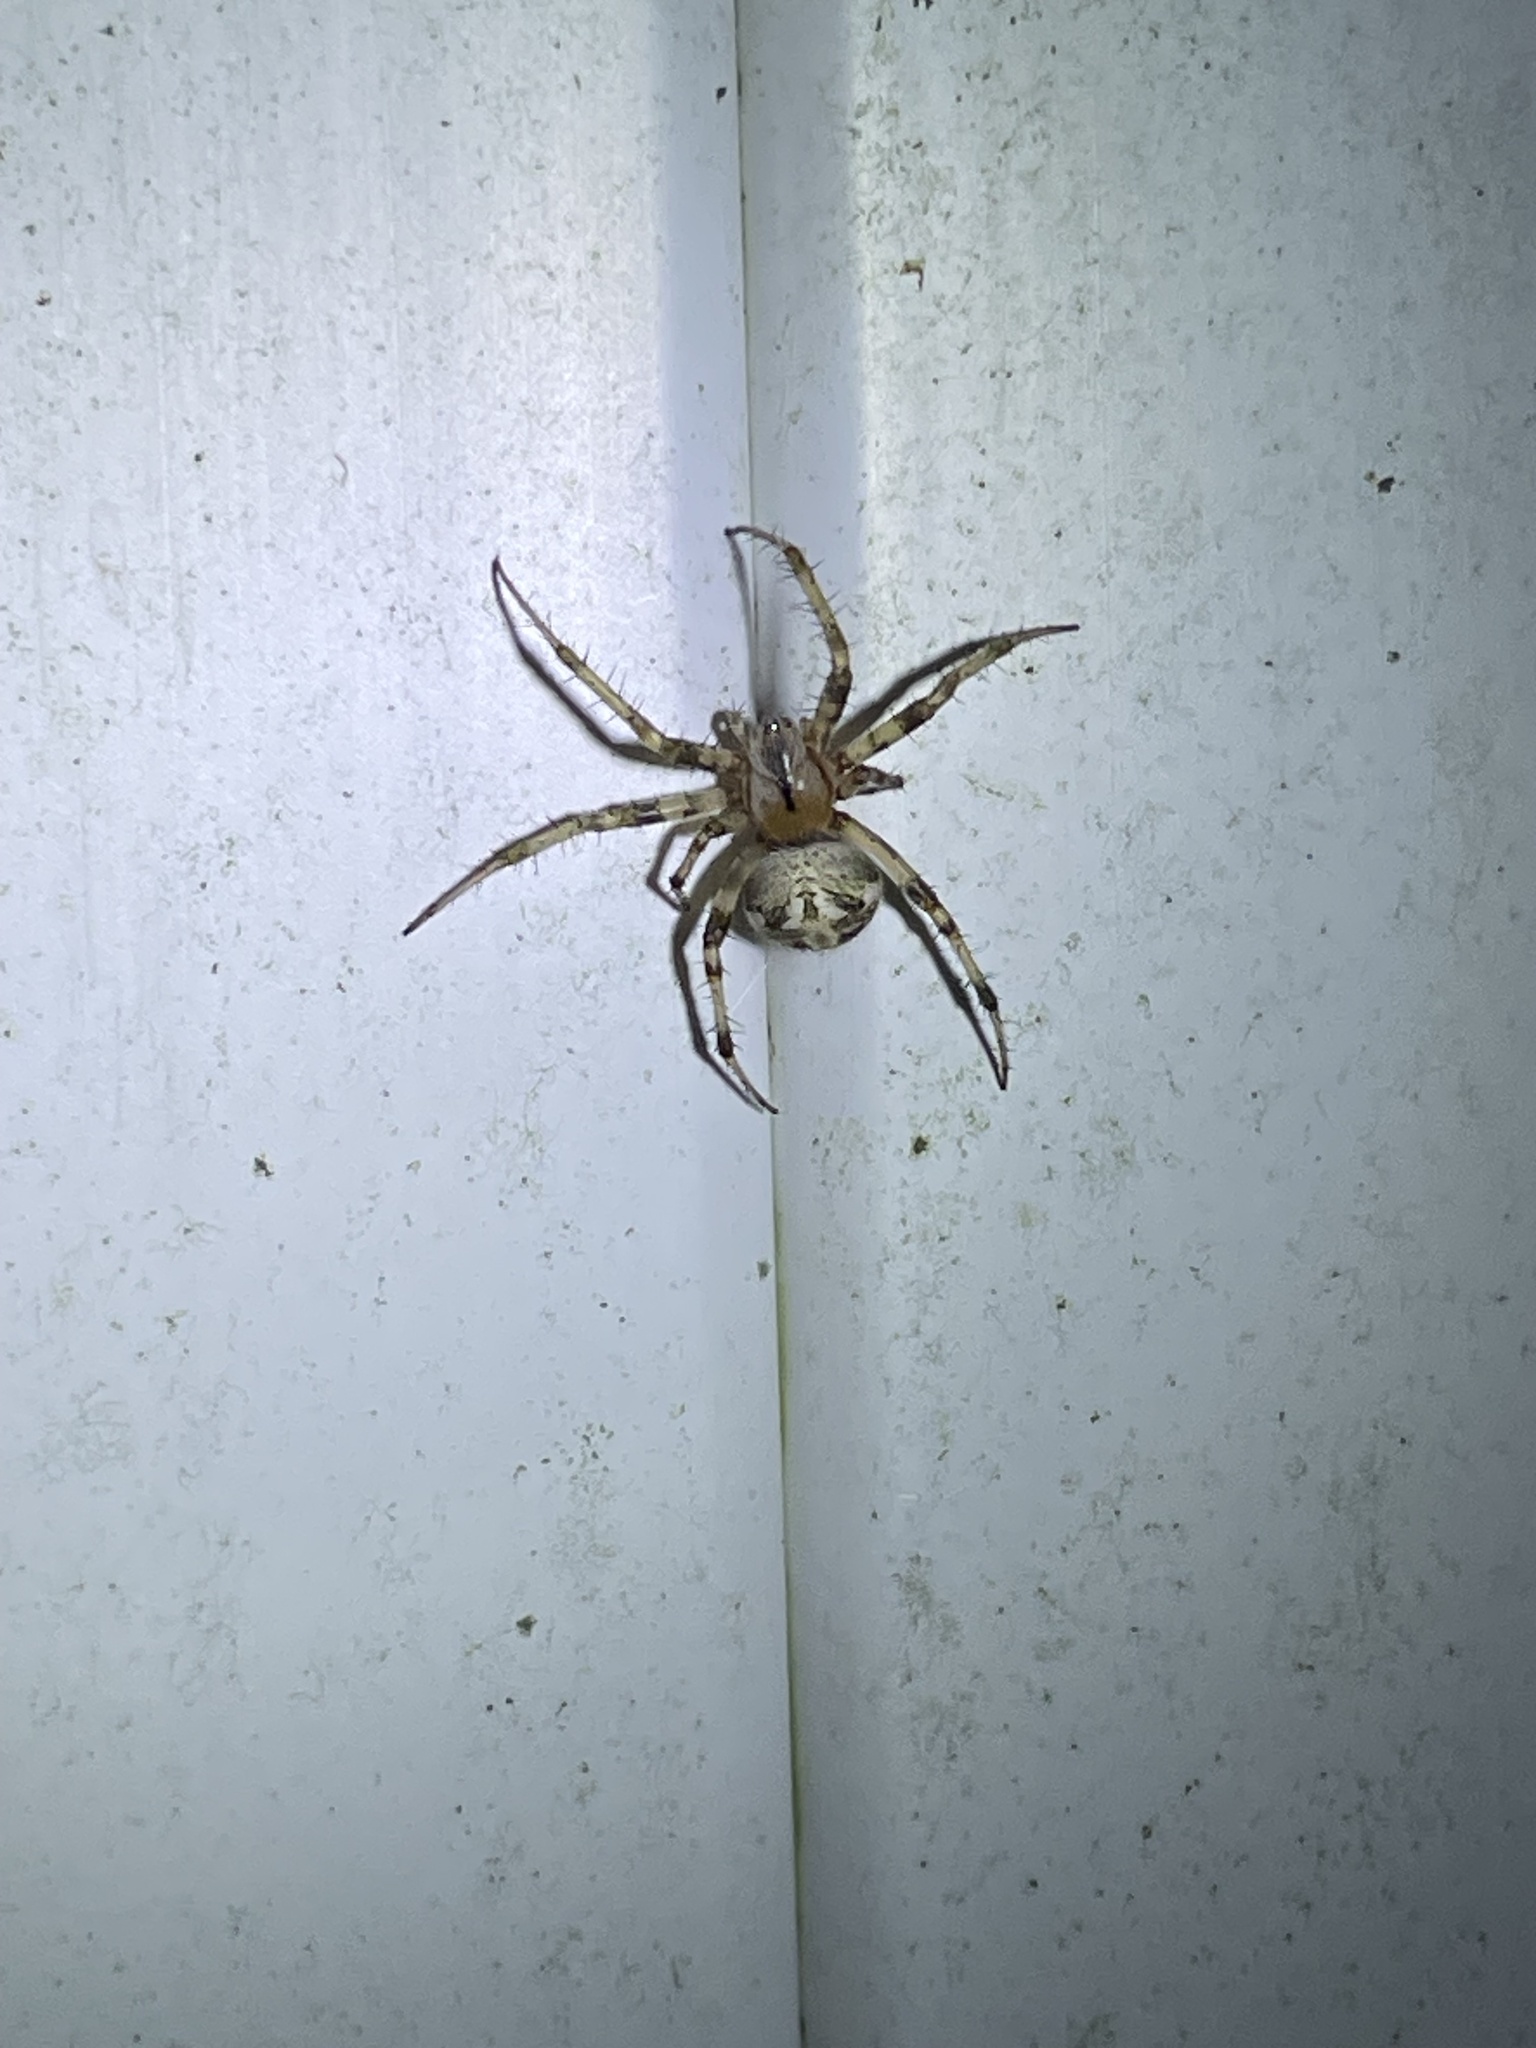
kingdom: Animalia
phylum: Arthropoda
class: Arachnida
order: Araneae
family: Araneidae
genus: Larinioides
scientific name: Larinioides cornutus
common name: Furrow orbweaver
